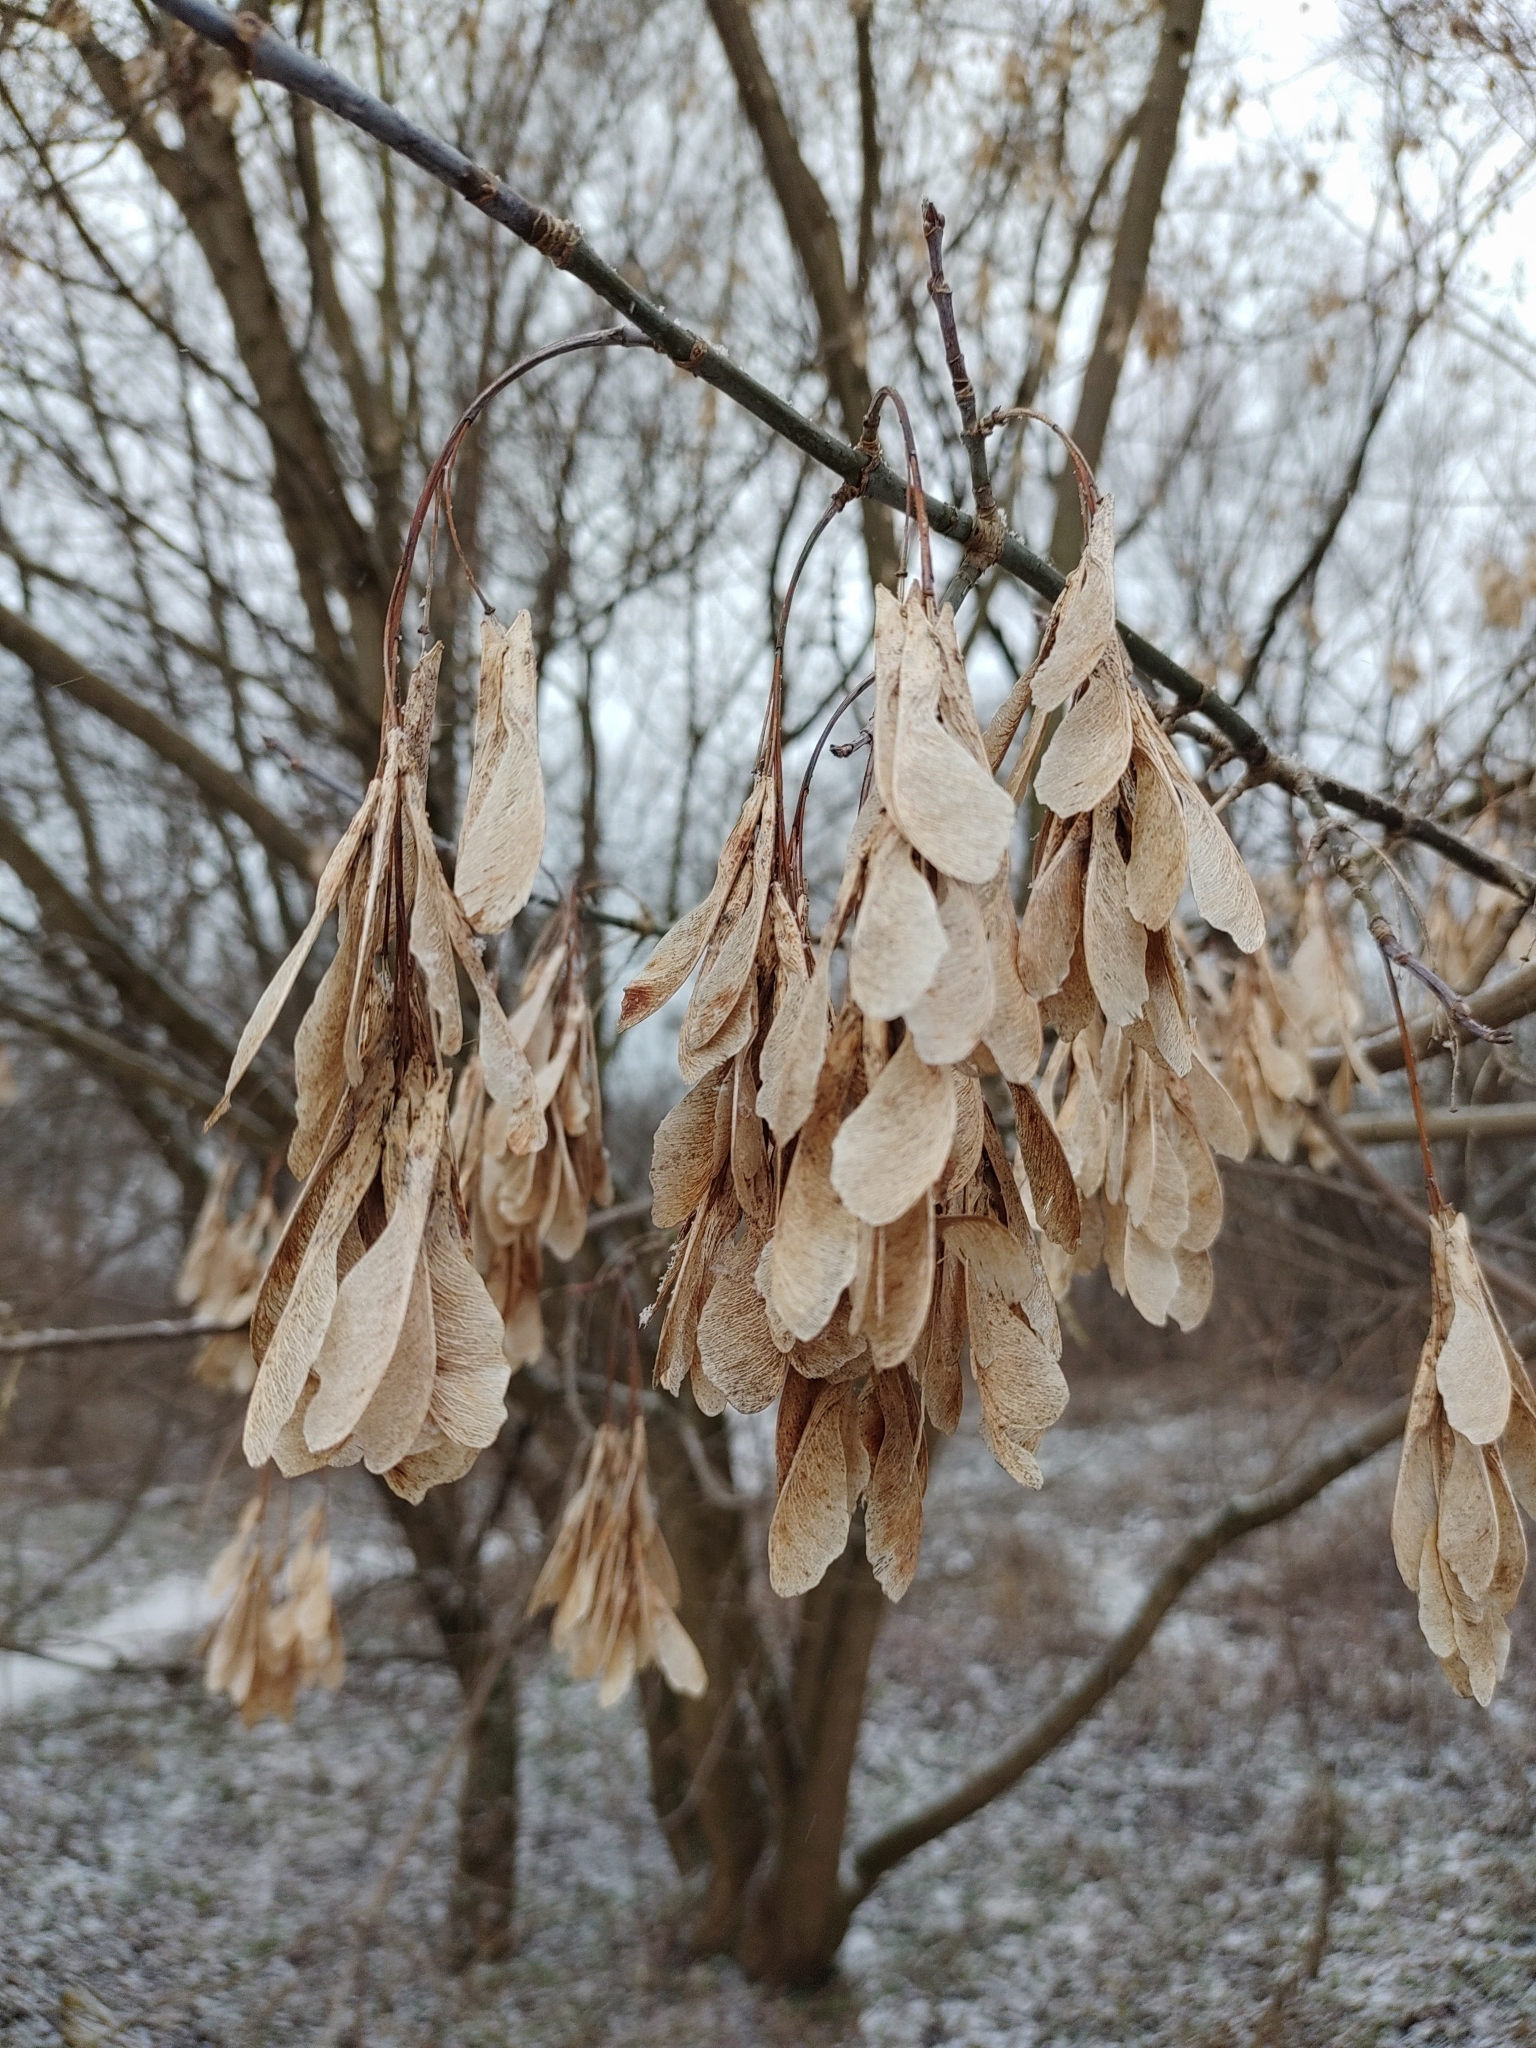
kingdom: Plantae
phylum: Tracheophyta
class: Magnoliopsida
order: Sapindales
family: Sapindaceae
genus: Acer
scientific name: Acer negundo
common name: Ashleaf maple
